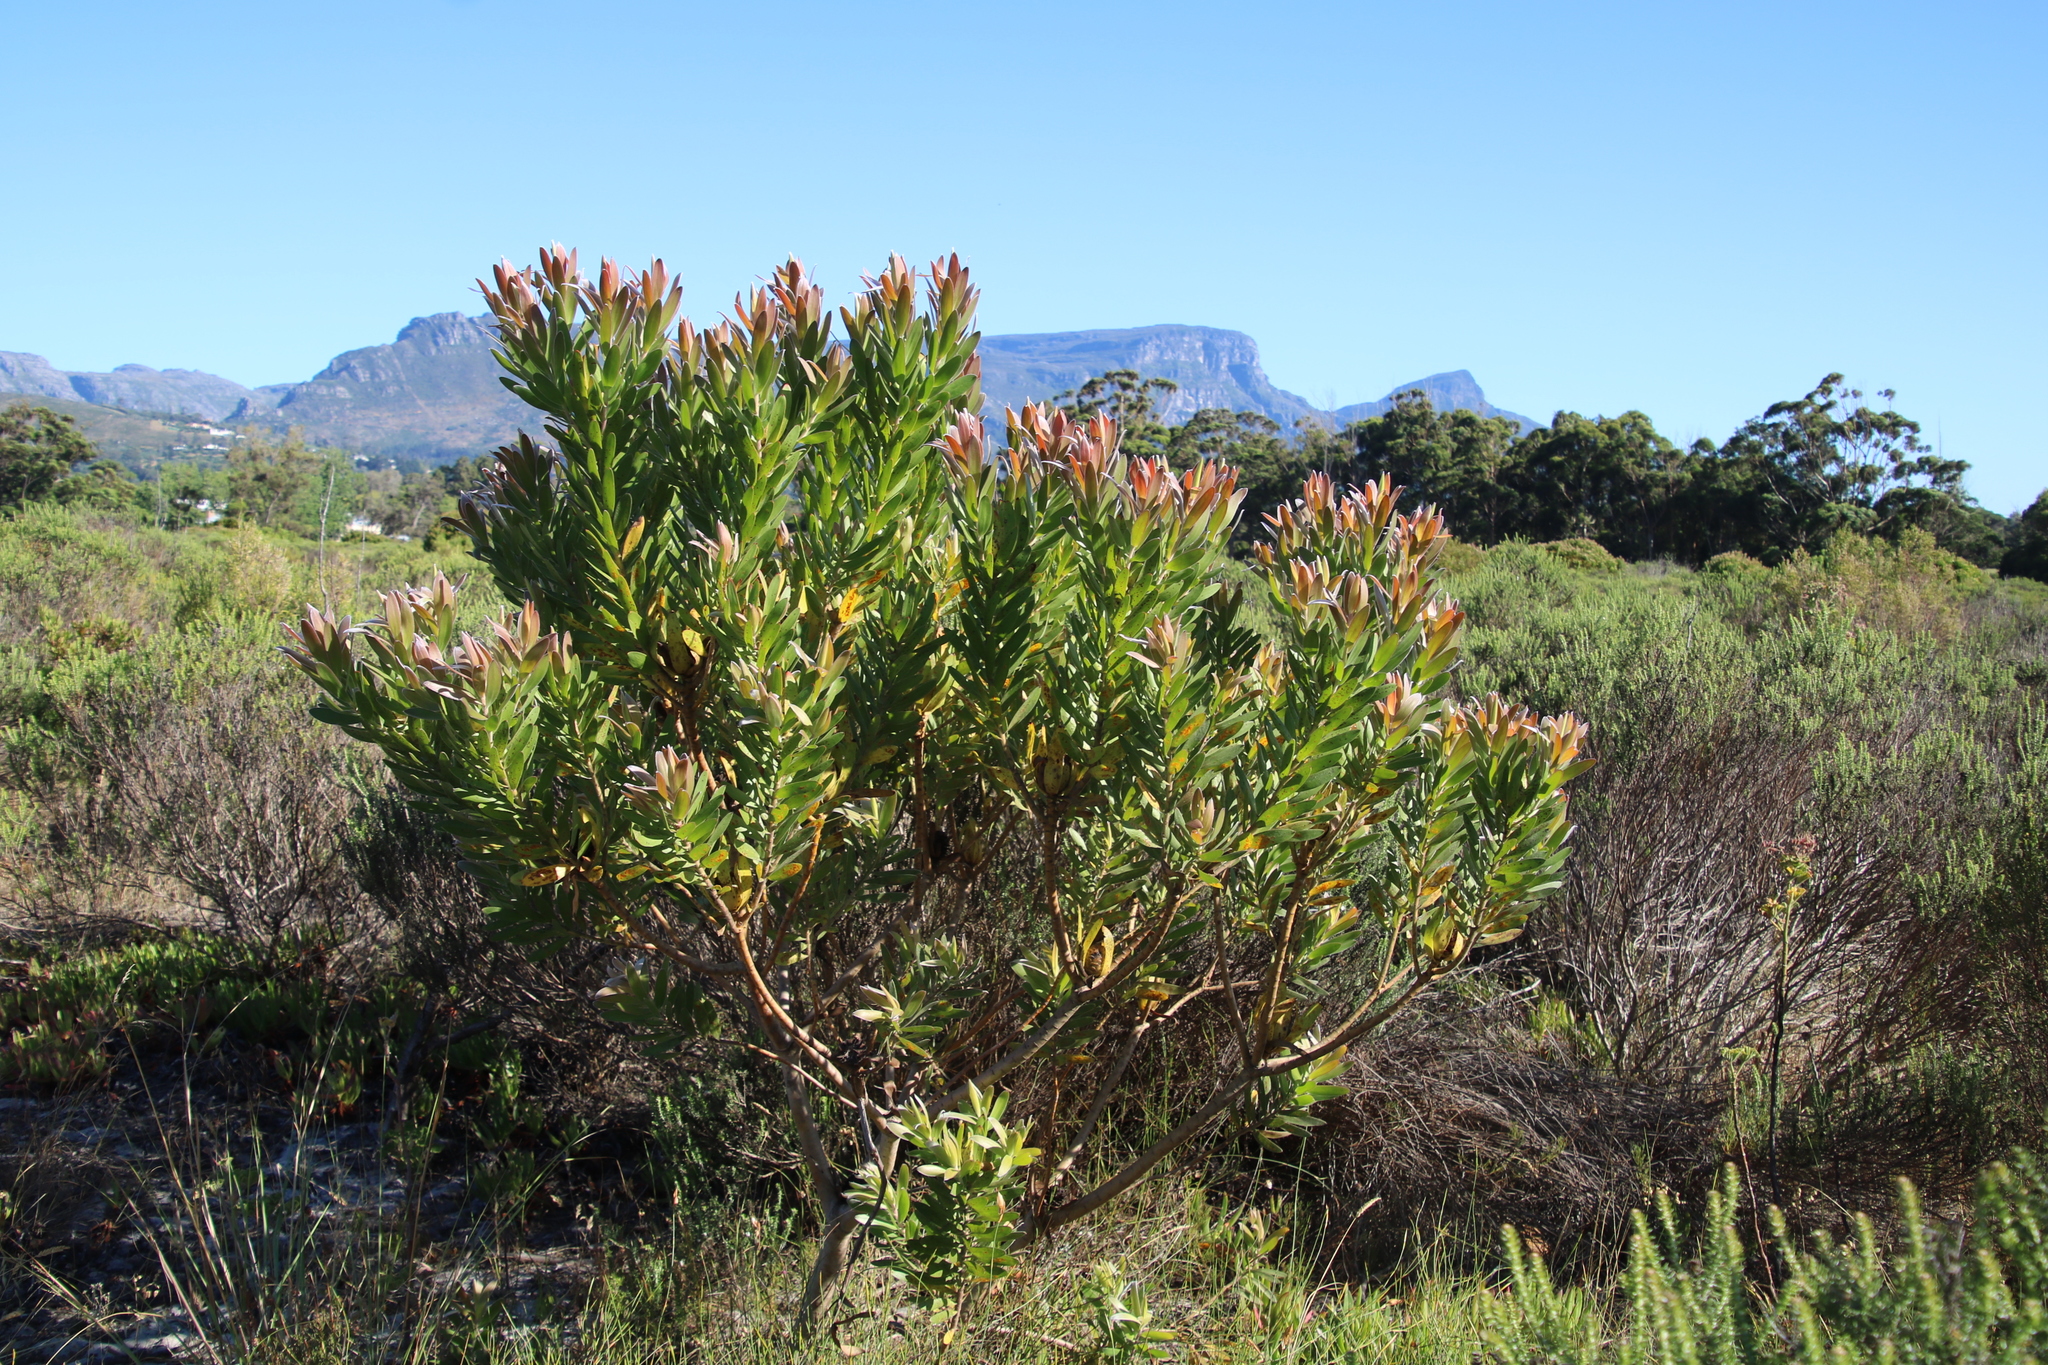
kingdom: Plantae
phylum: Tracheophyta
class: Magnoliopsida
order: Proteales
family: Proteaceae
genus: Leucadendron
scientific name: Leucadendron laureolum
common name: Golden sunshinebush
